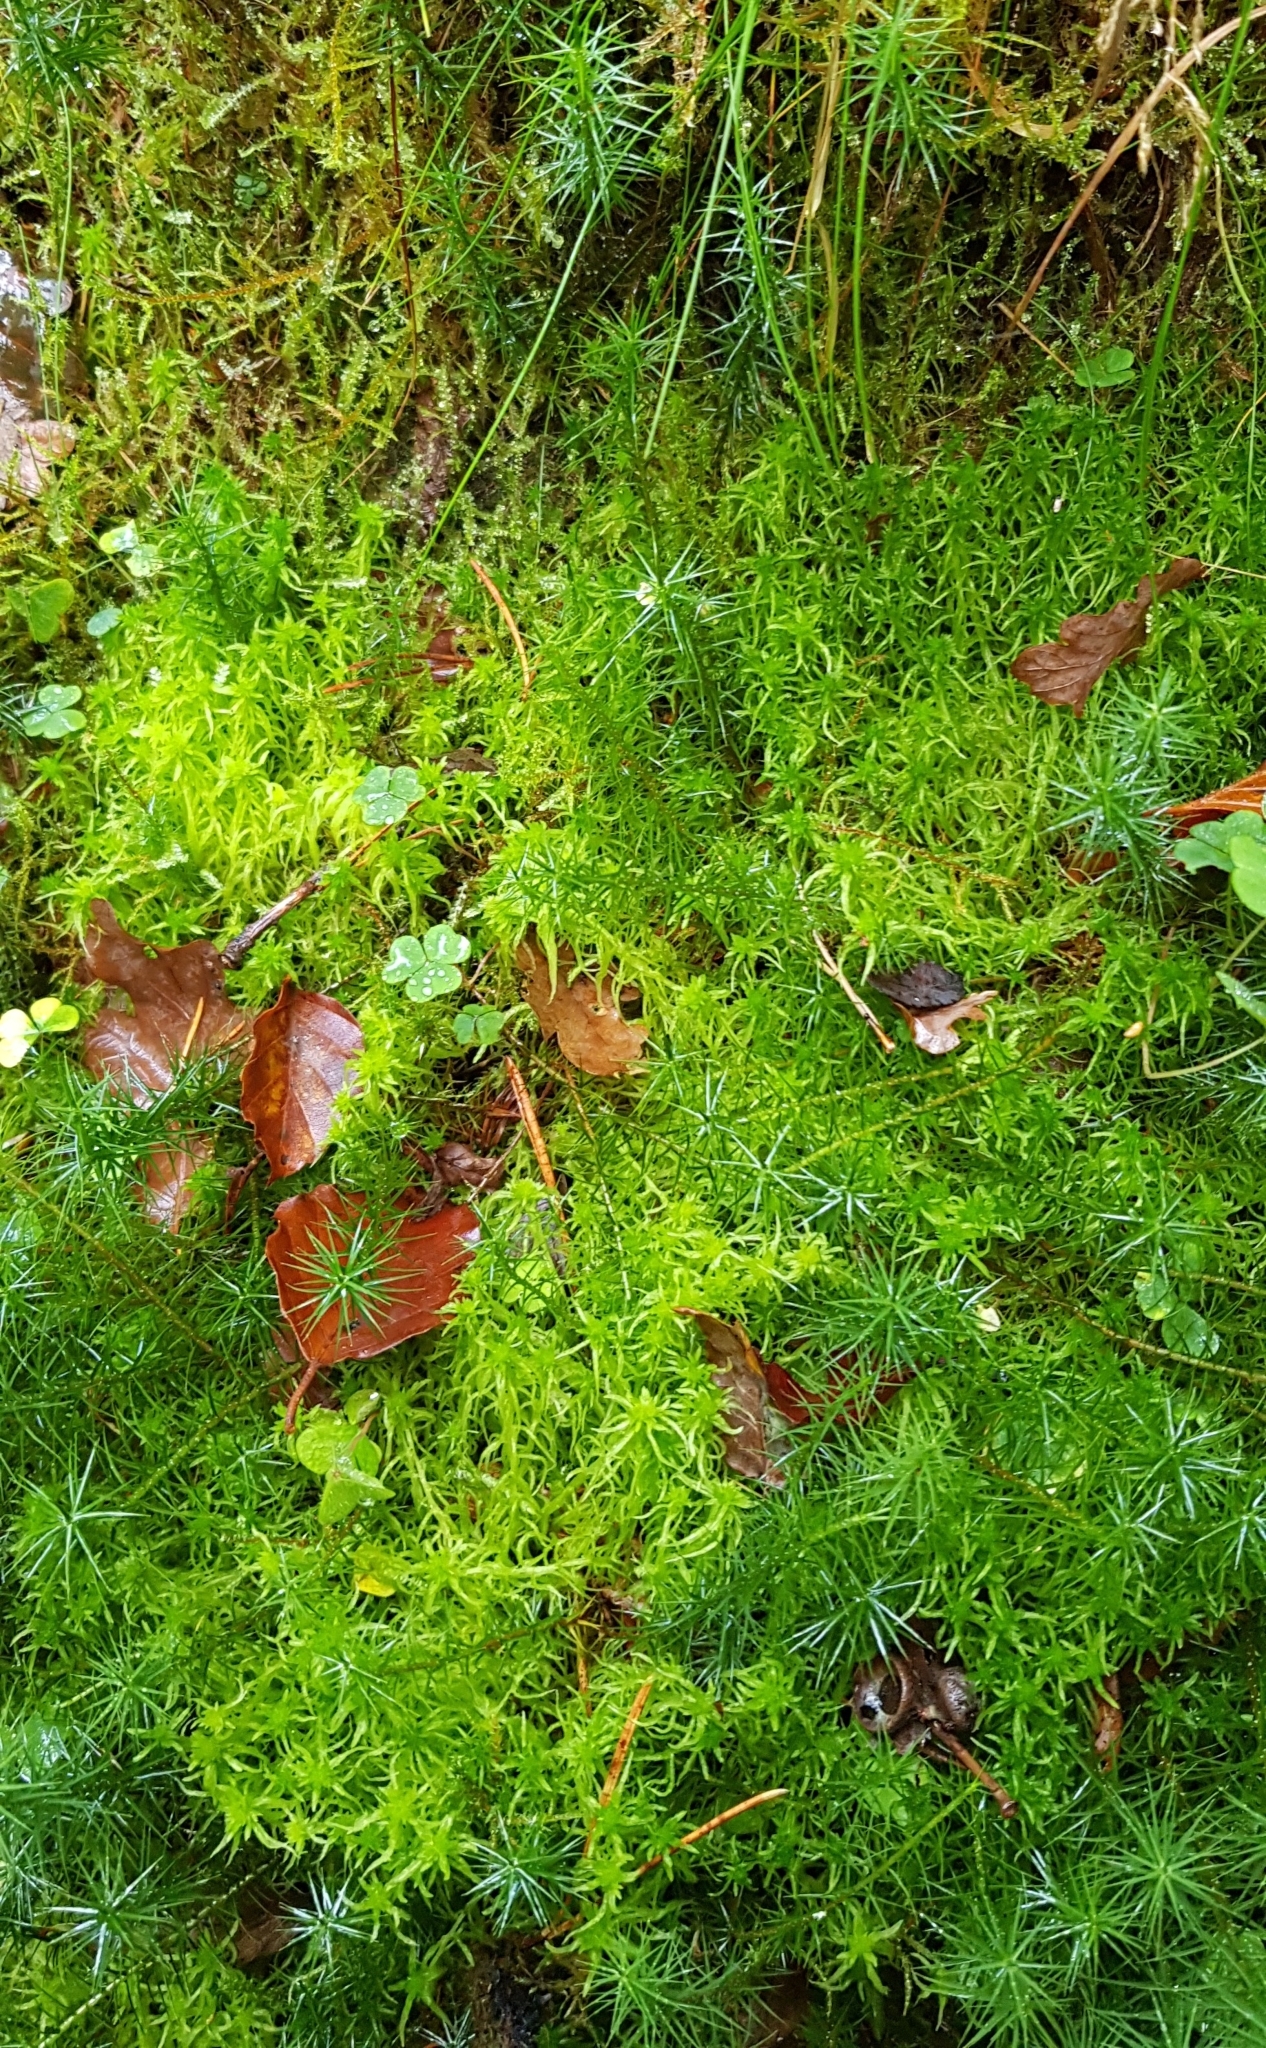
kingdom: Plantae
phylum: Bryophyta
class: Sphagnopsida
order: Sphagnales
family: Sphagnaceae
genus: Sphagnum
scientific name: Sphagnum fimbriatum
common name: Fringed peat moss
